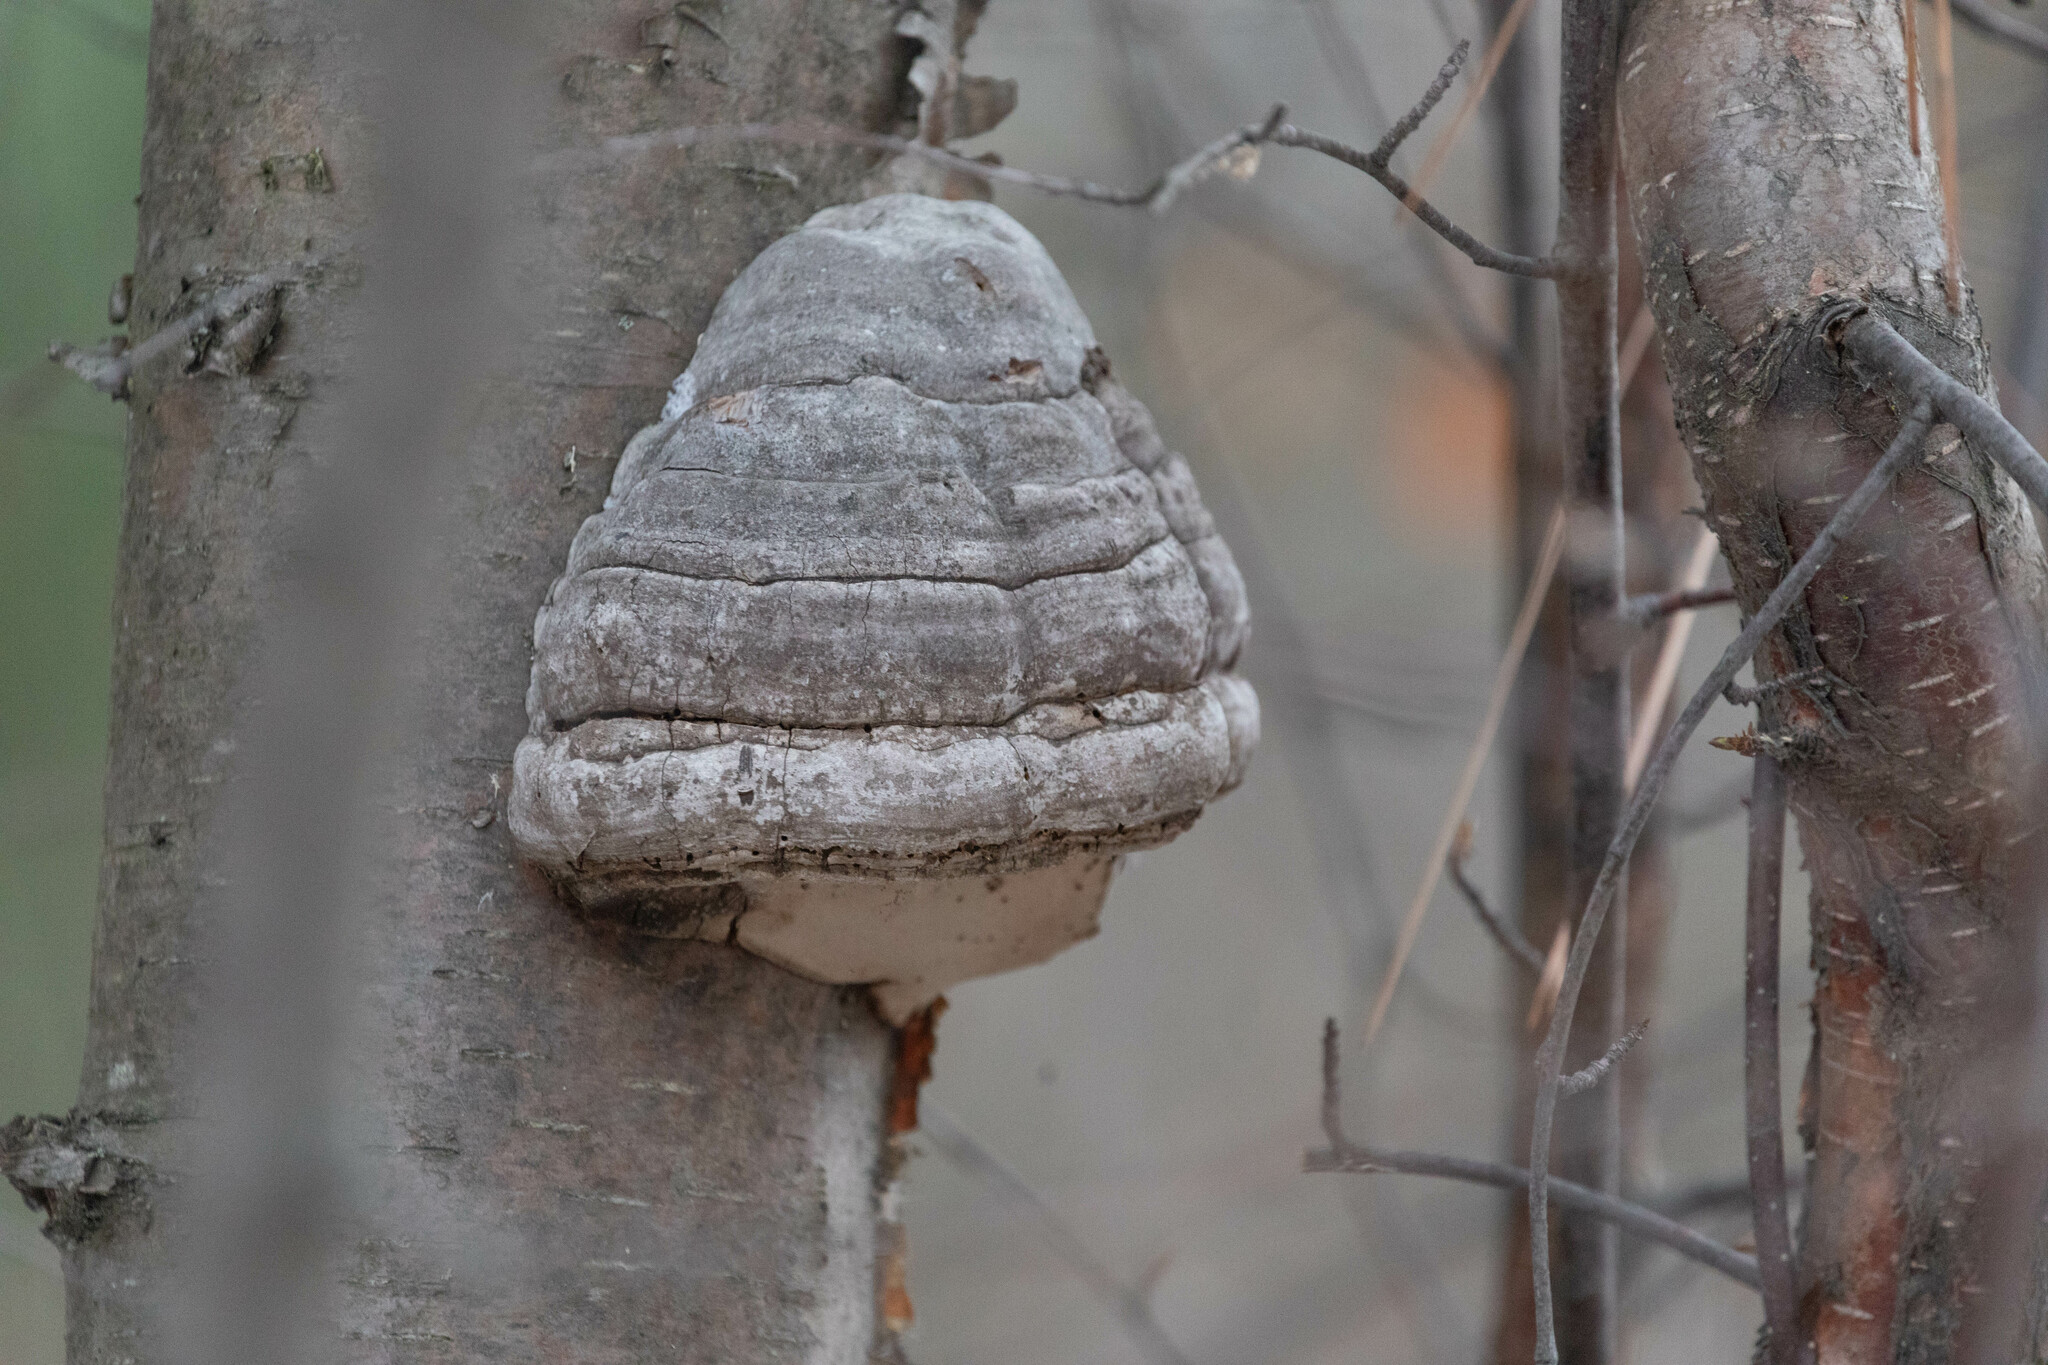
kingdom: Fungi
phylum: Basidiomycota
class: Agaricomycetes
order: Polyporales
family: Polyporaceae
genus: Fomes
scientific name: Fomes fomentarius
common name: Hoof fungus
